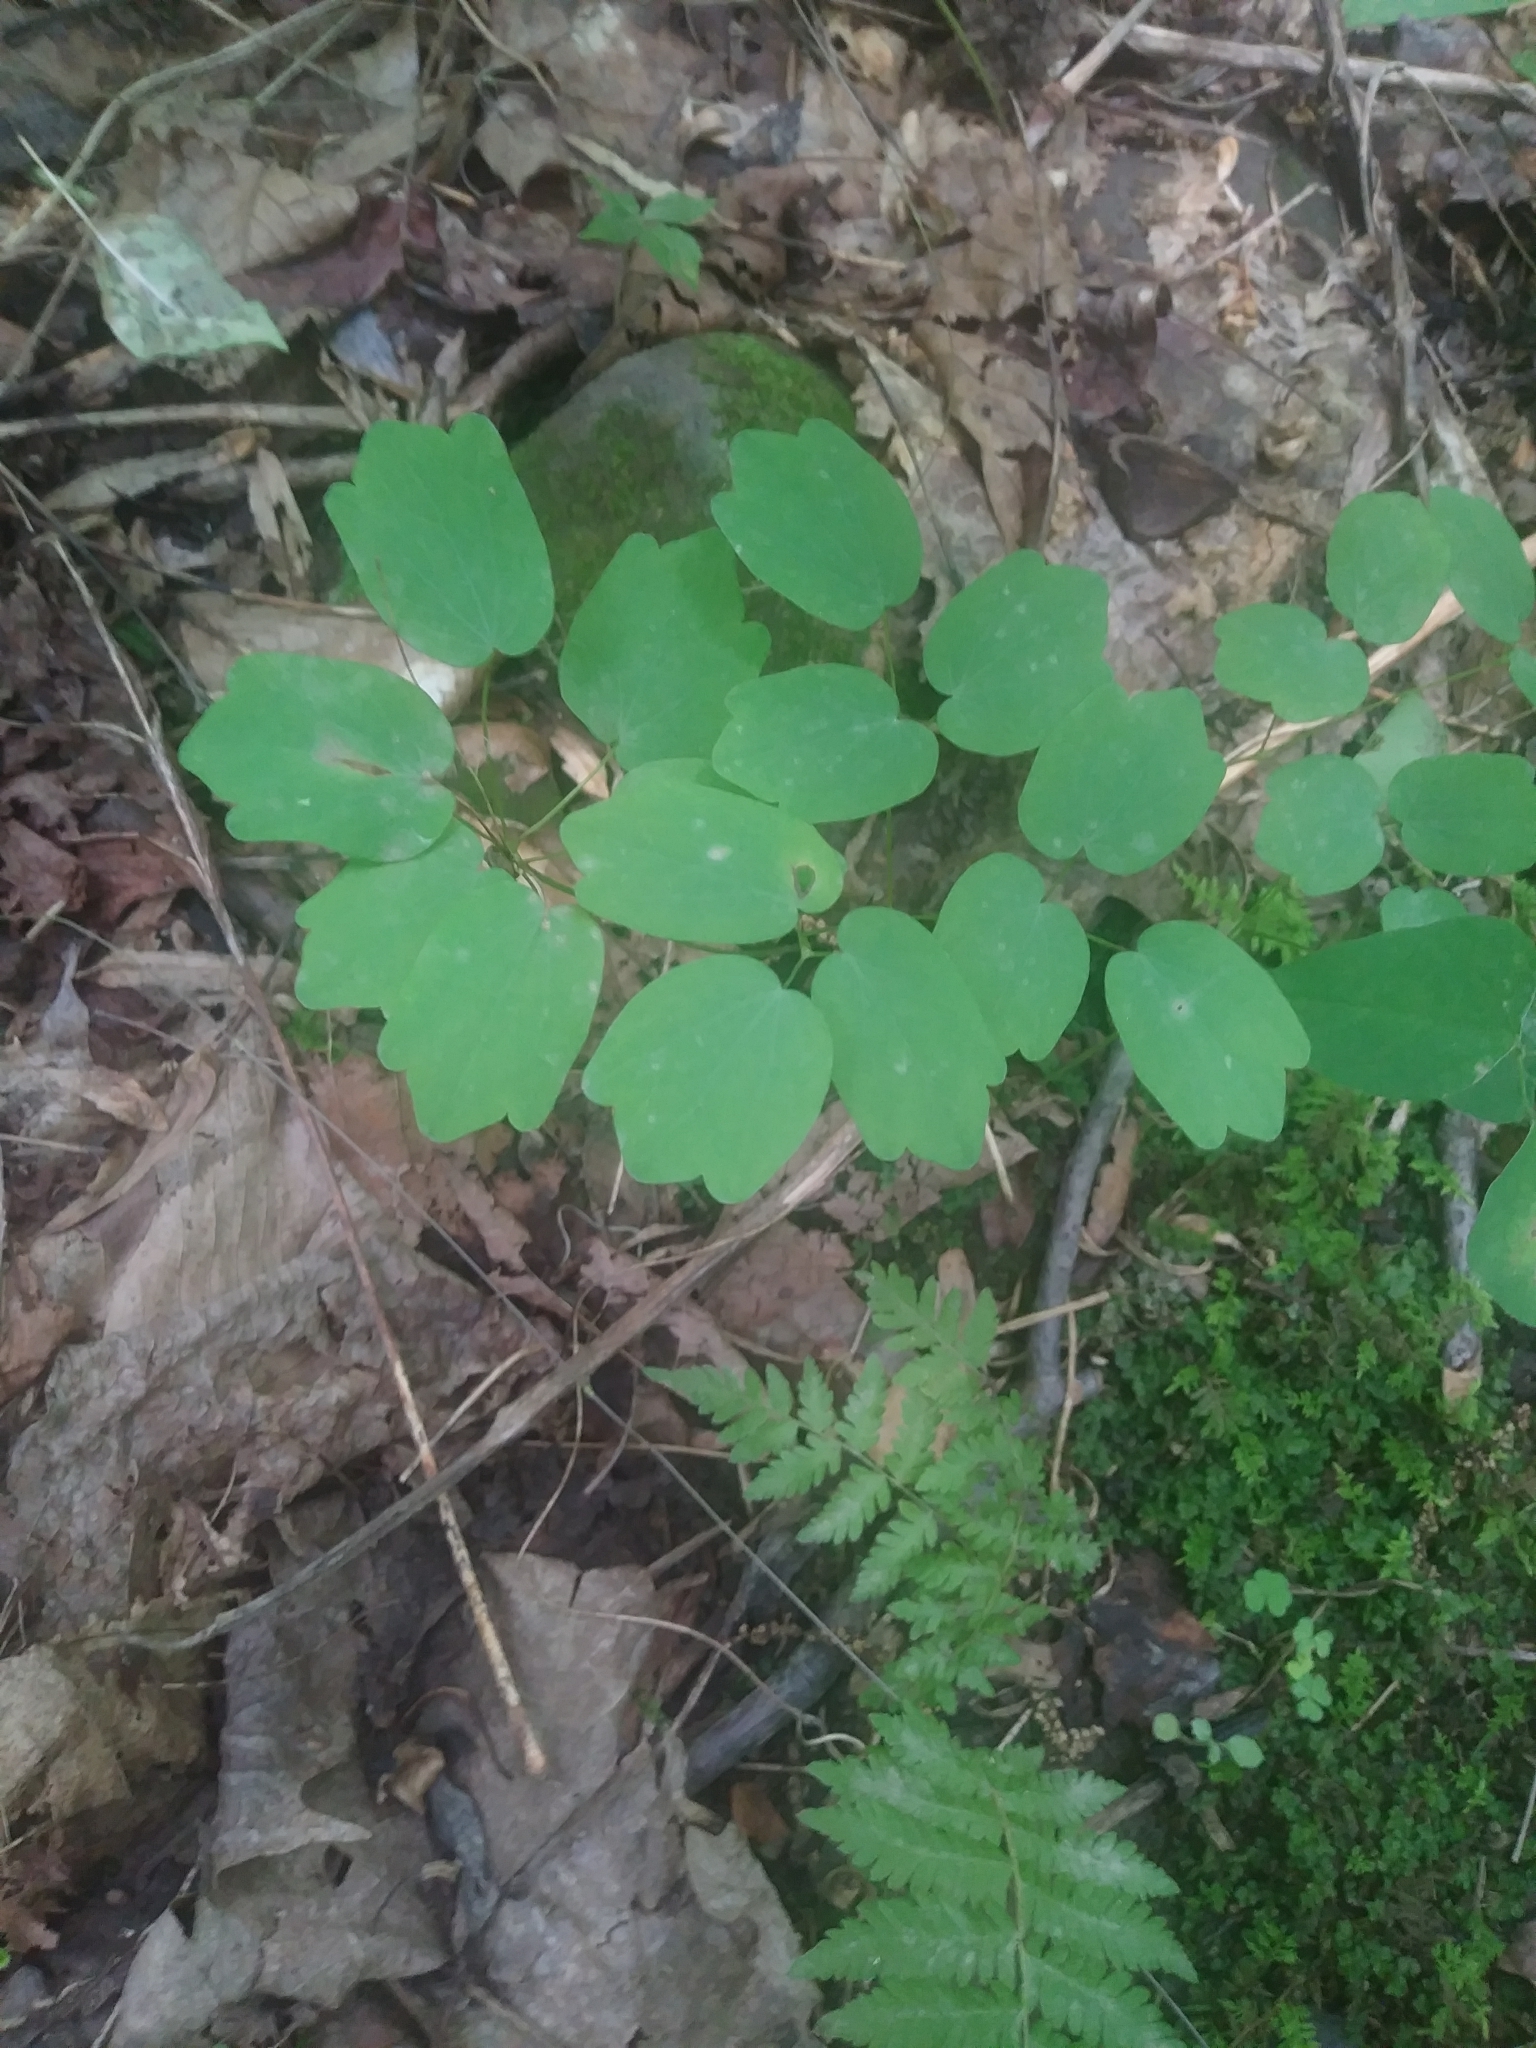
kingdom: Plantae
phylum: Tracheophyta
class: Magnoliopsida
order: Ranunculales
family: Ranunculaceae
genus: Thalictrum
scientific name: Thalictrum thalictroides
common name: Rue-anemone
